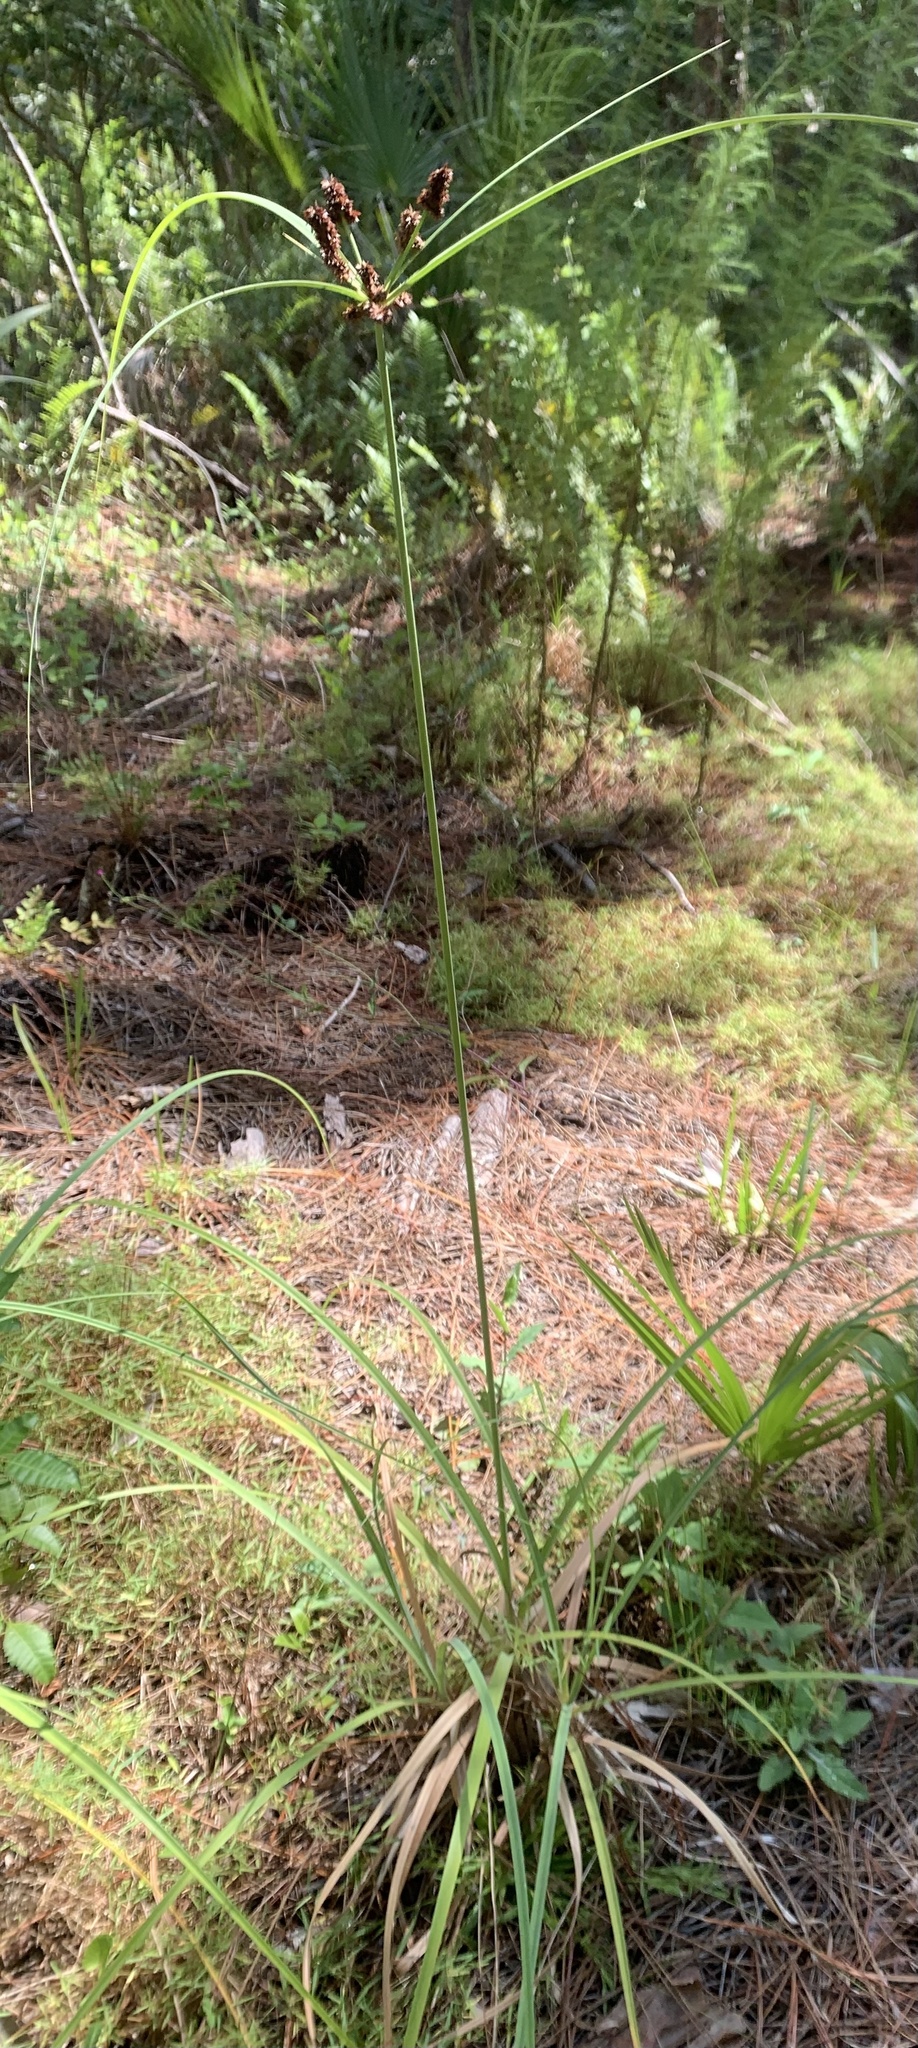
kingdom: Plantae
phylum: Tracheophyta
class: Liliopsida
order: Poales
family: Cyperaceae
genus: Cyperus
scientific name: Cyperus ligularis
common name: Swamp flat sedge
